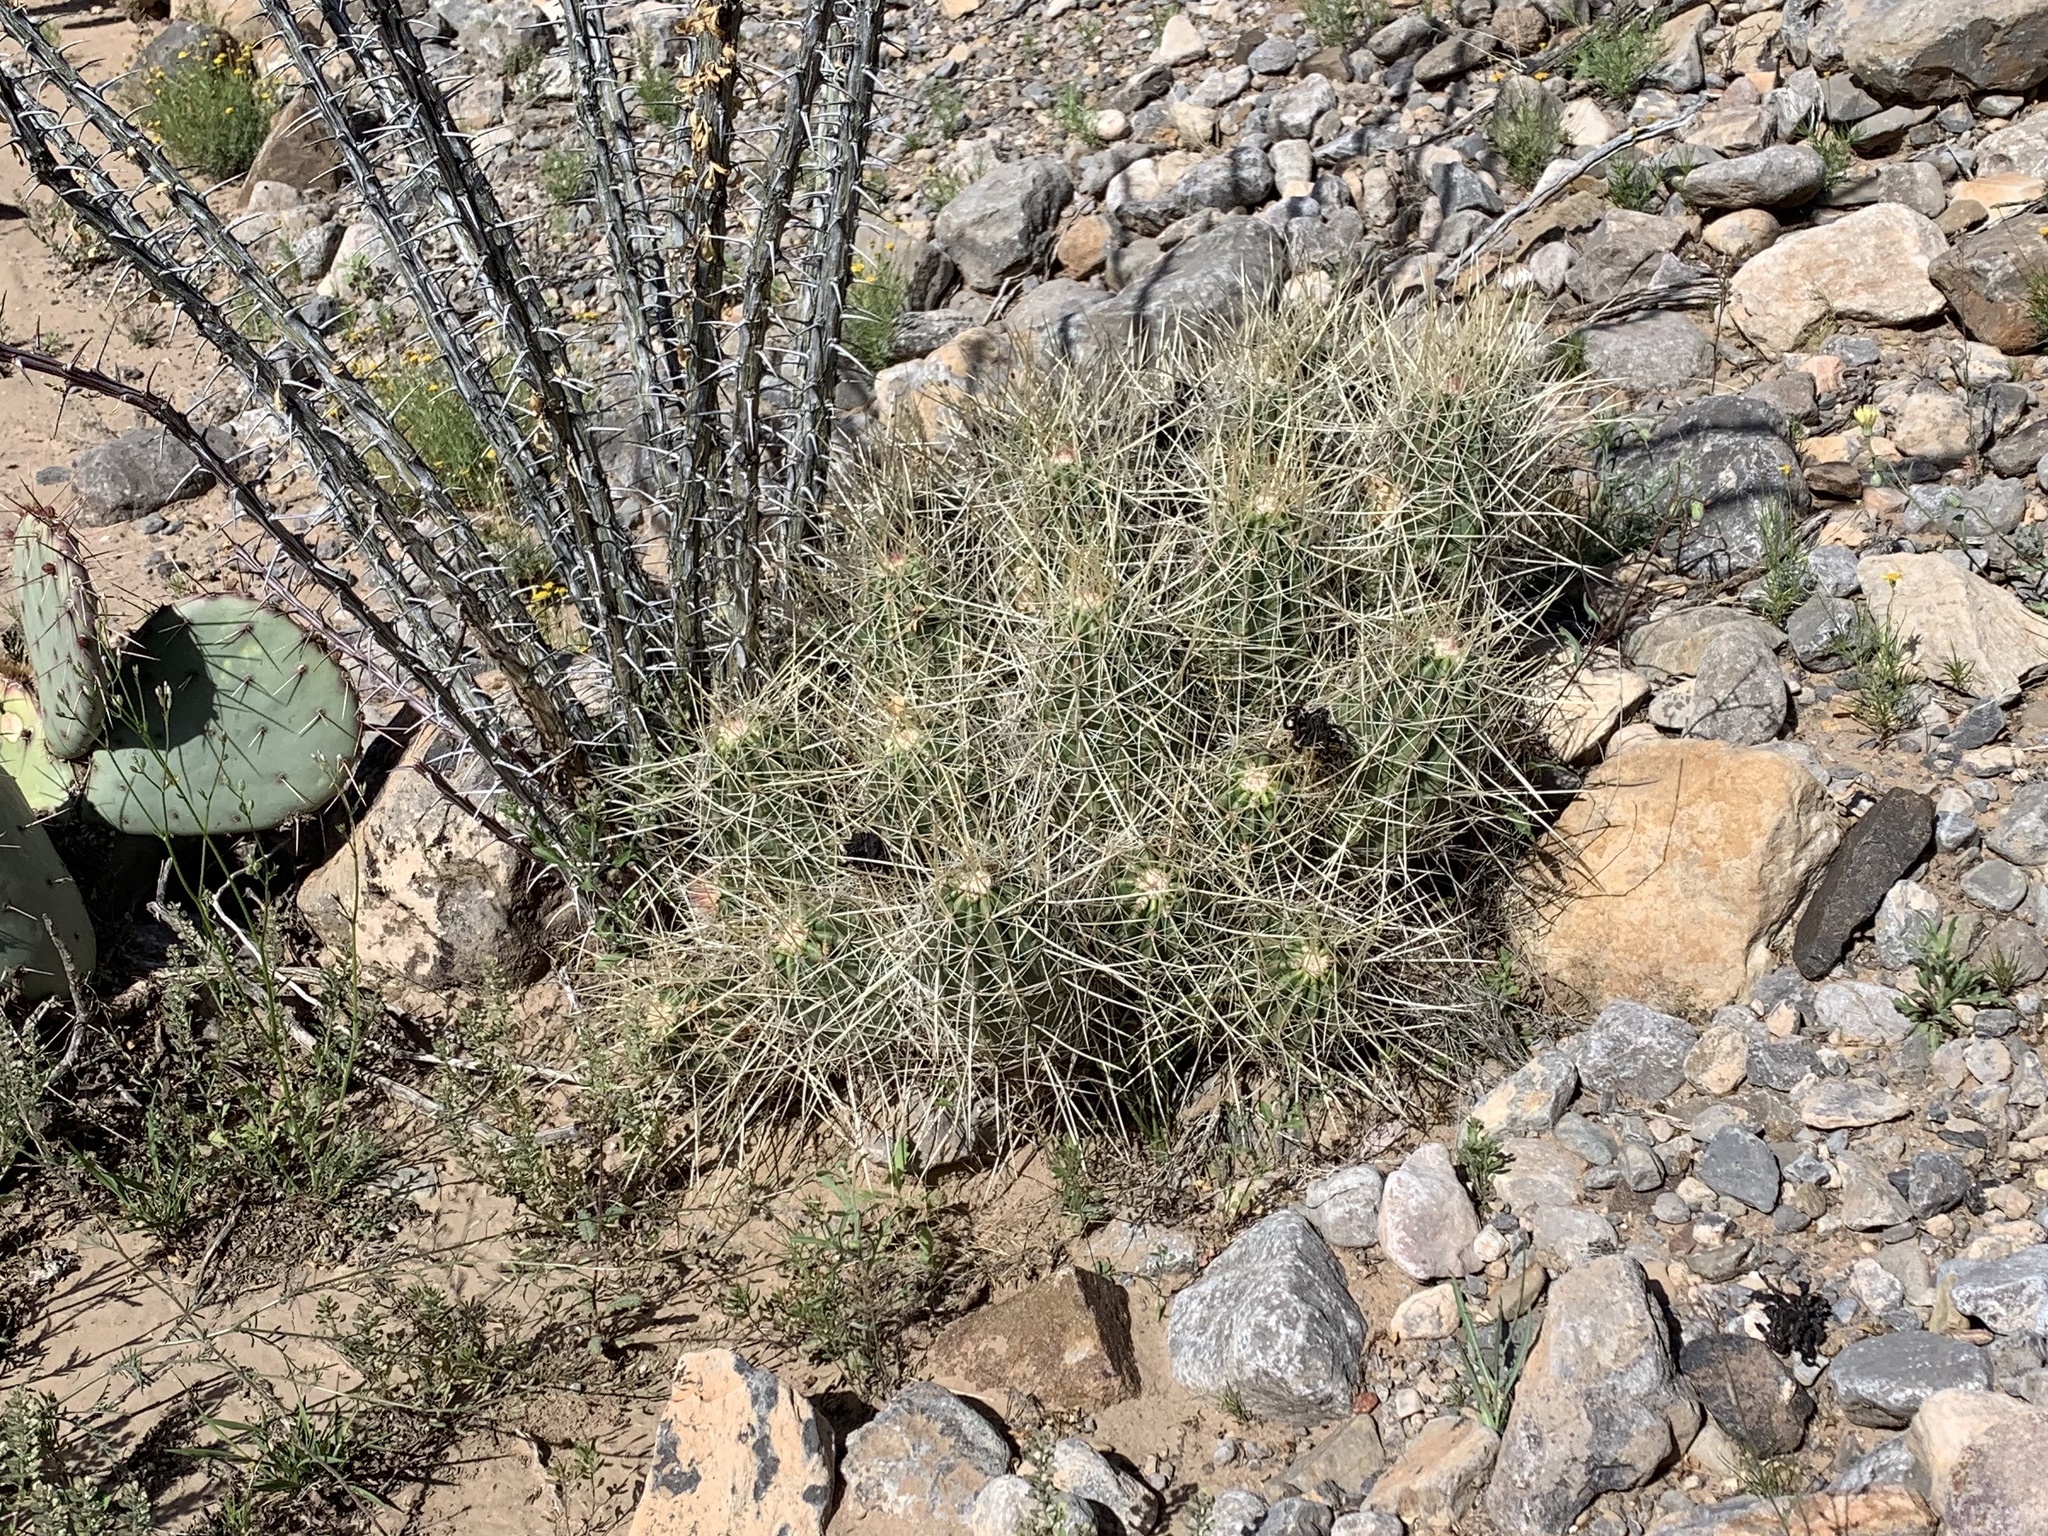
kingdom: Plantae
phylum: Tracheophyta
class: Magnoliopsida
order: Caryophyllales
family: Cactaceae
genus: Echinocereus
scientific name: Echinocereus stramineus
